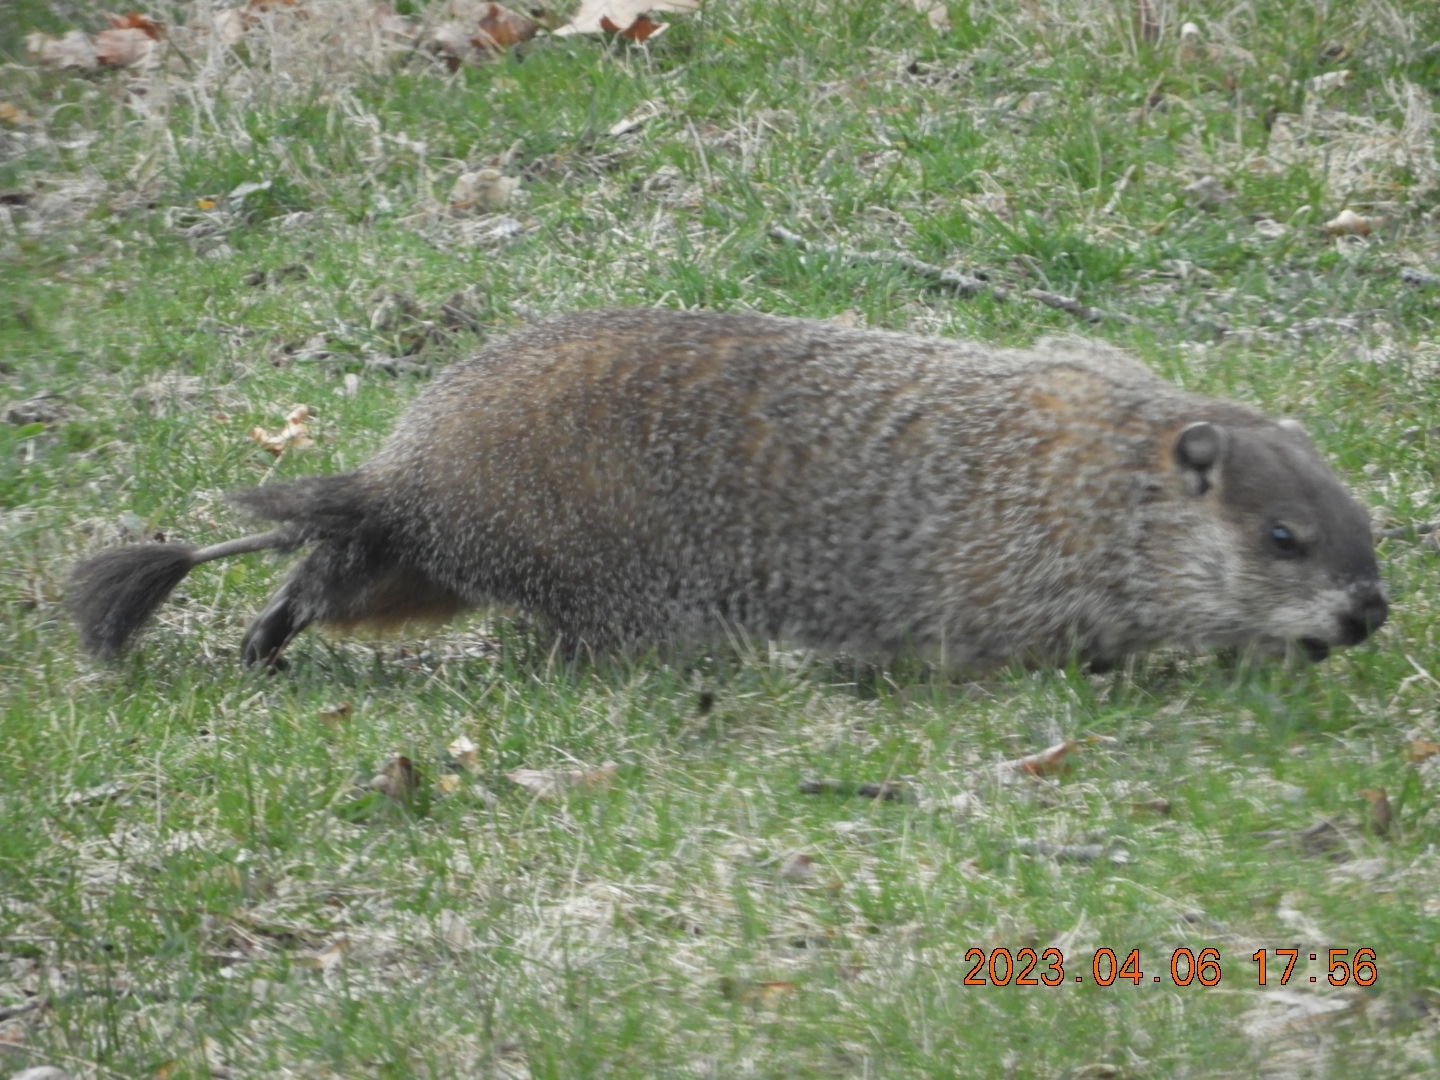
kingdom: Animalia
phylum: Chordata
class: Mammalia
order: Rodentia
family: Sciuridae
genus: Marmota
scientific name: Marmota monax
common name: Groundhog
